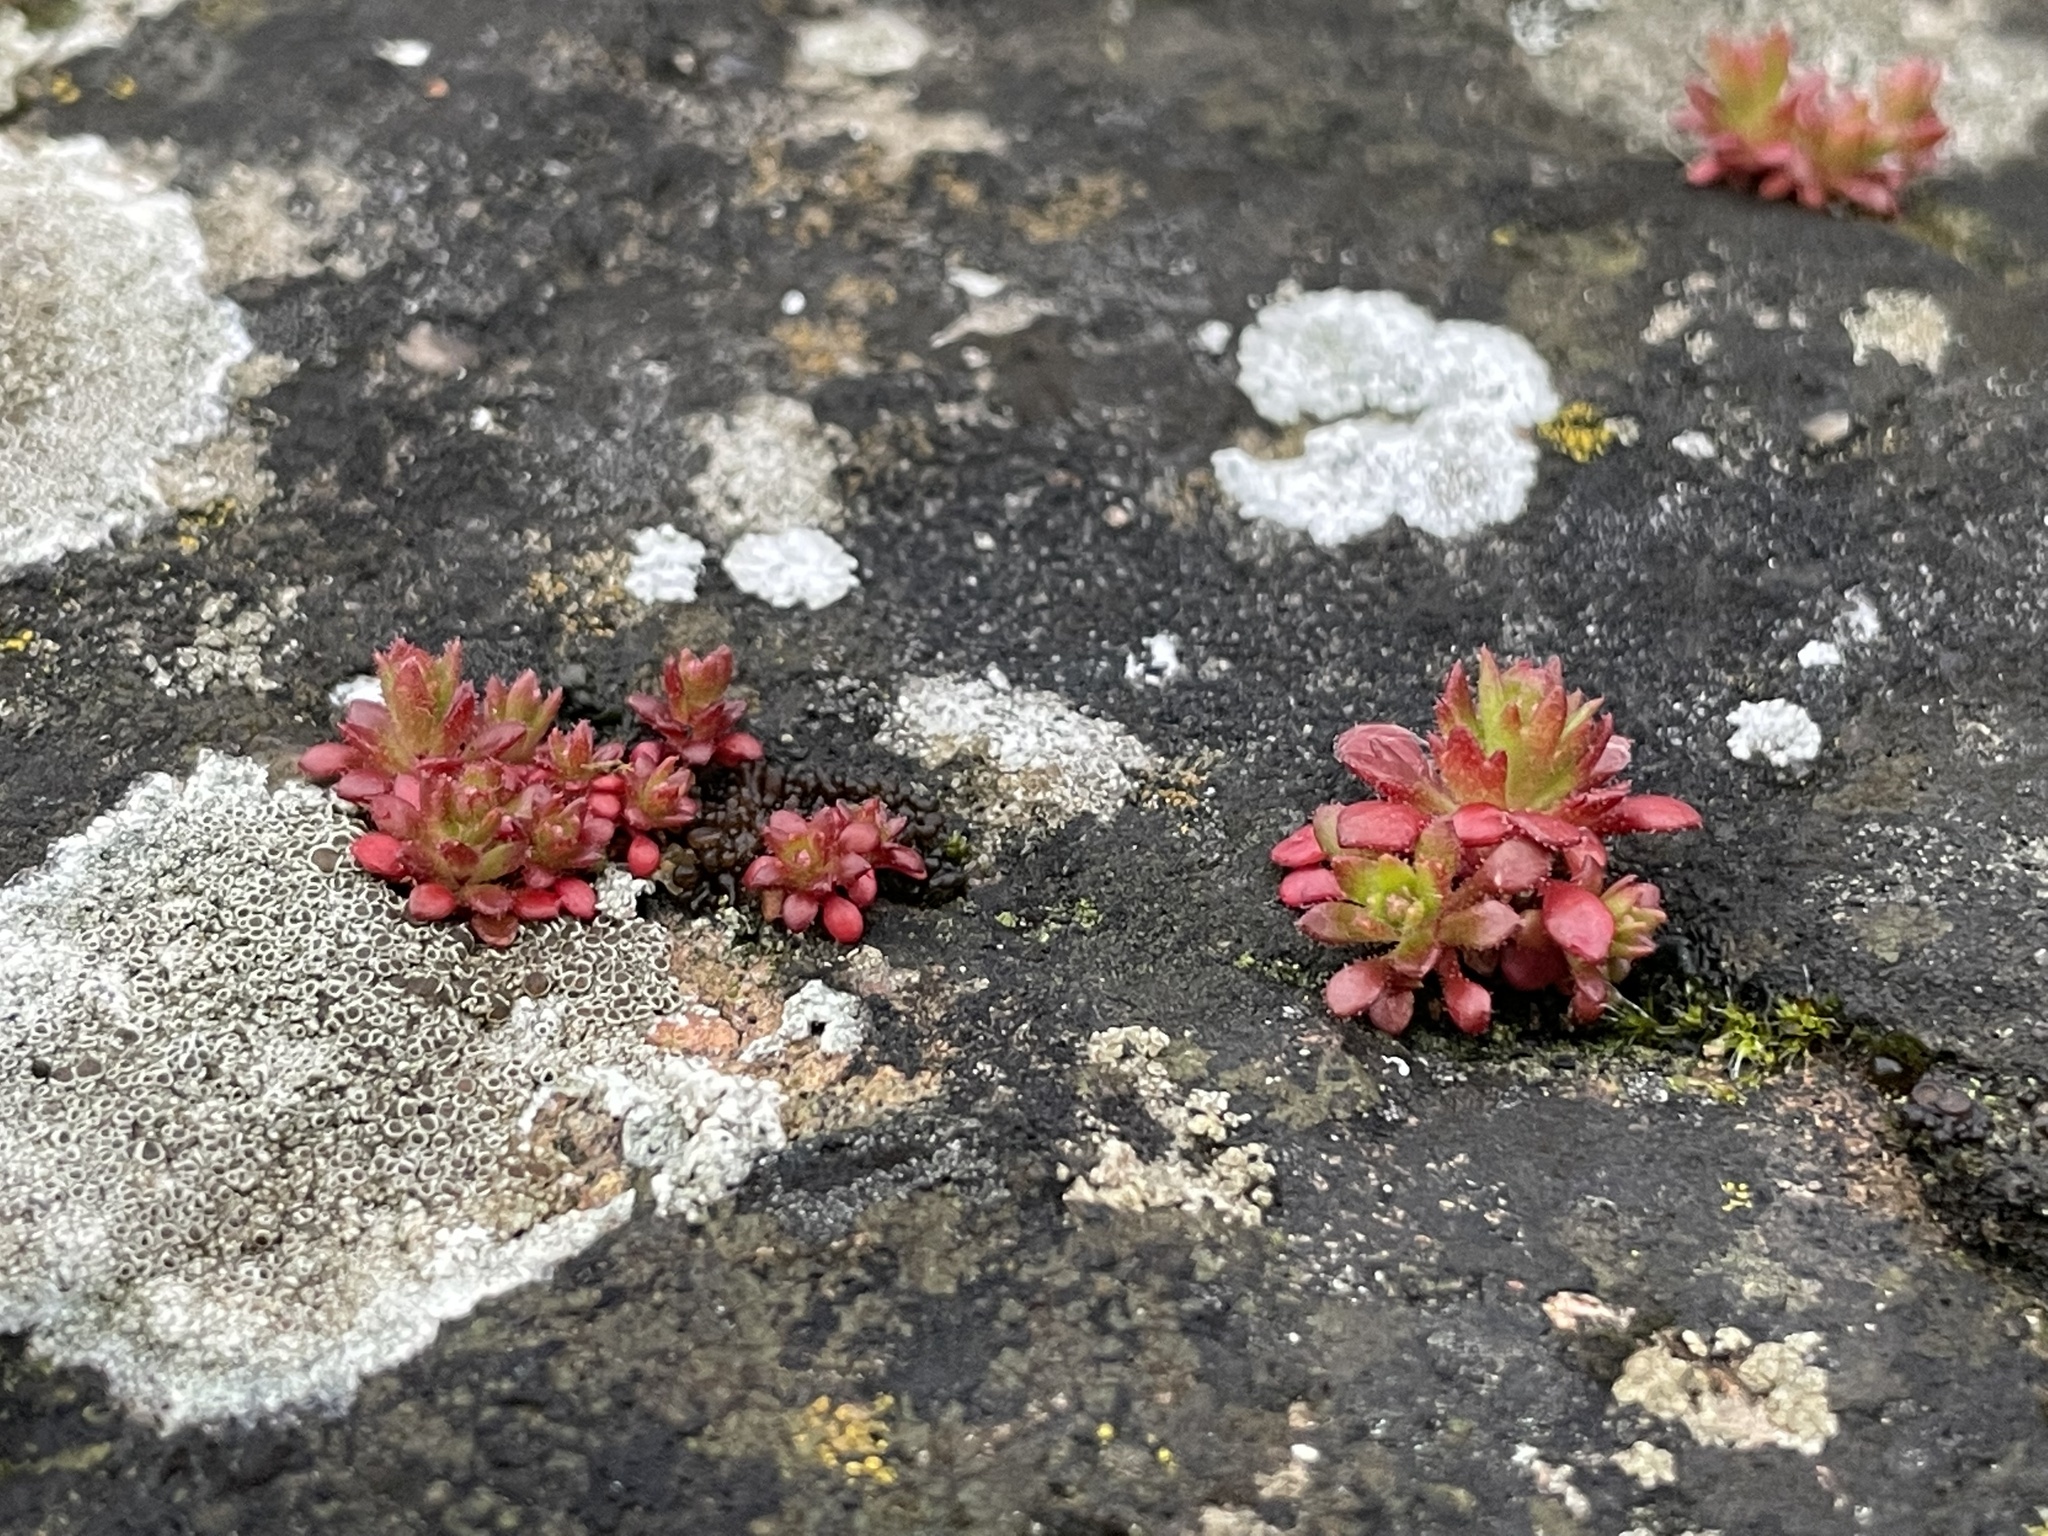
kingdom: Plantae
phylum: Tracheophyta
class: Magnoliopsida
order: Saxifragales
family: Saxifragaceae
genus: Saxifraga
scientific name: Saxifraga tridactylites
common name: Rue-leaved saxifrage
